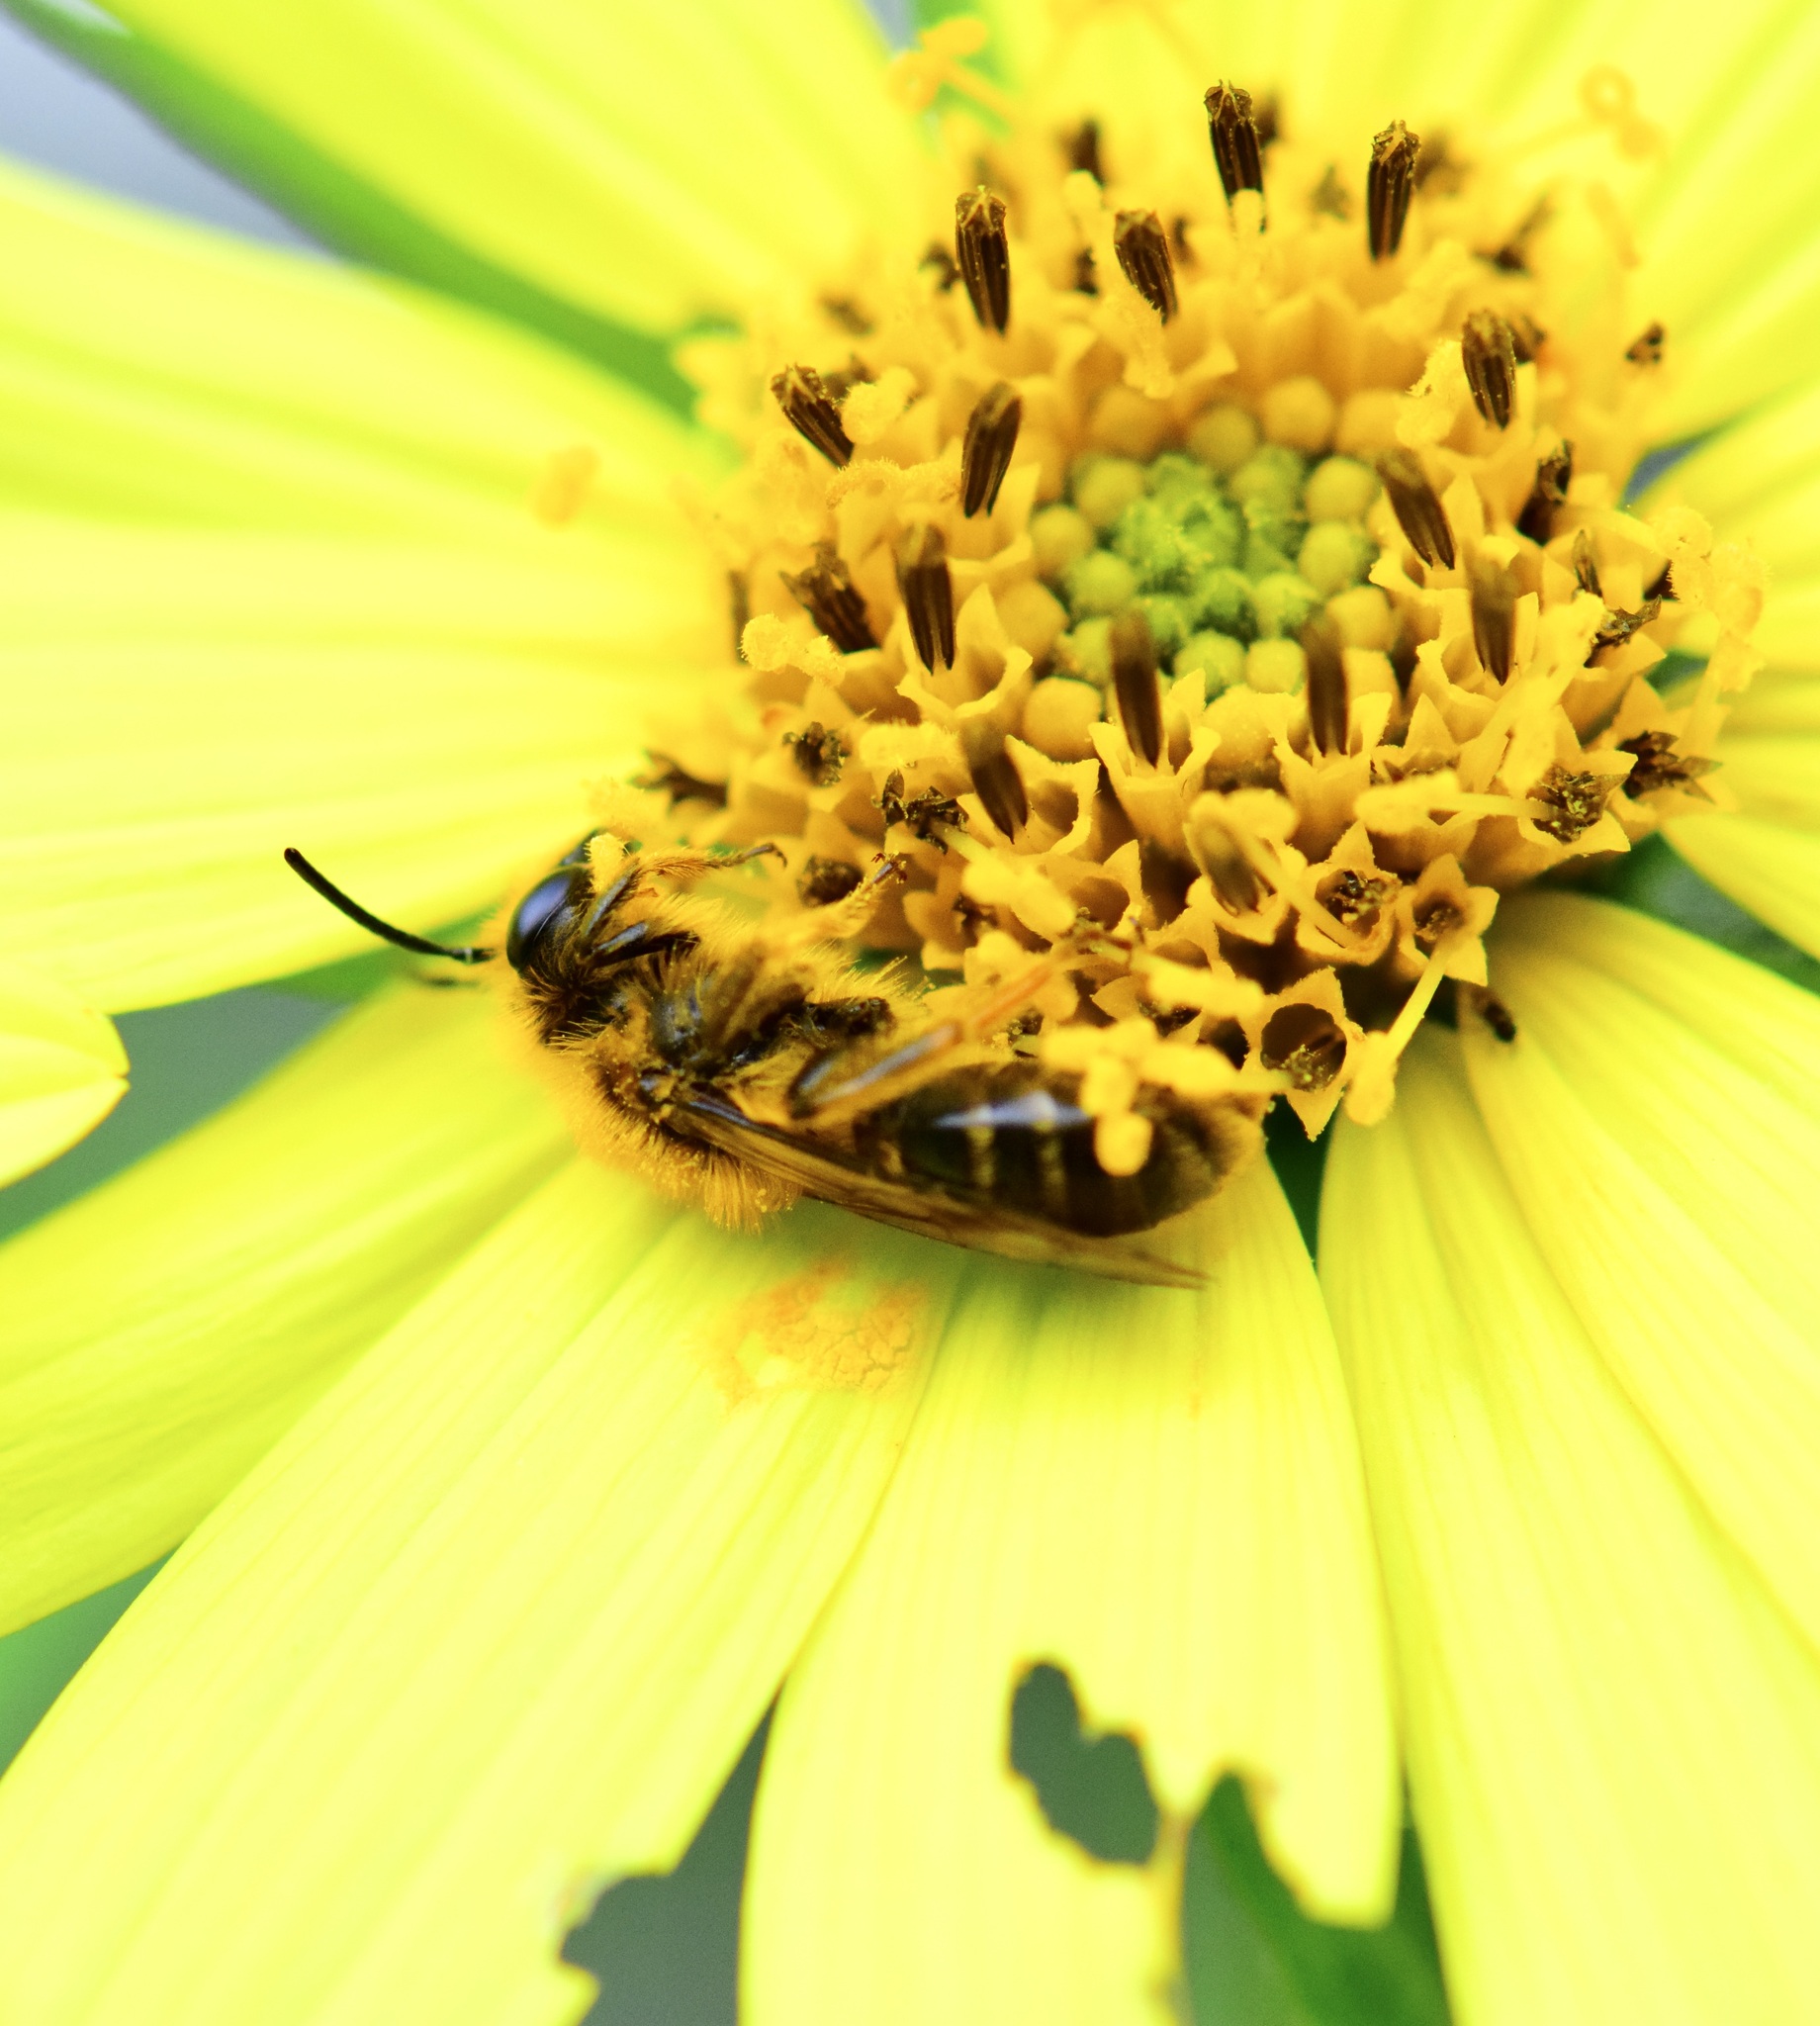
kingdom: Animalia
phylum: Arthropoda
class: Insecta
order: Hymenoptera
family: Andrenidae
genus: Andrena
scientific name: Andrena helianthi
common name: Sunflower mining bee
